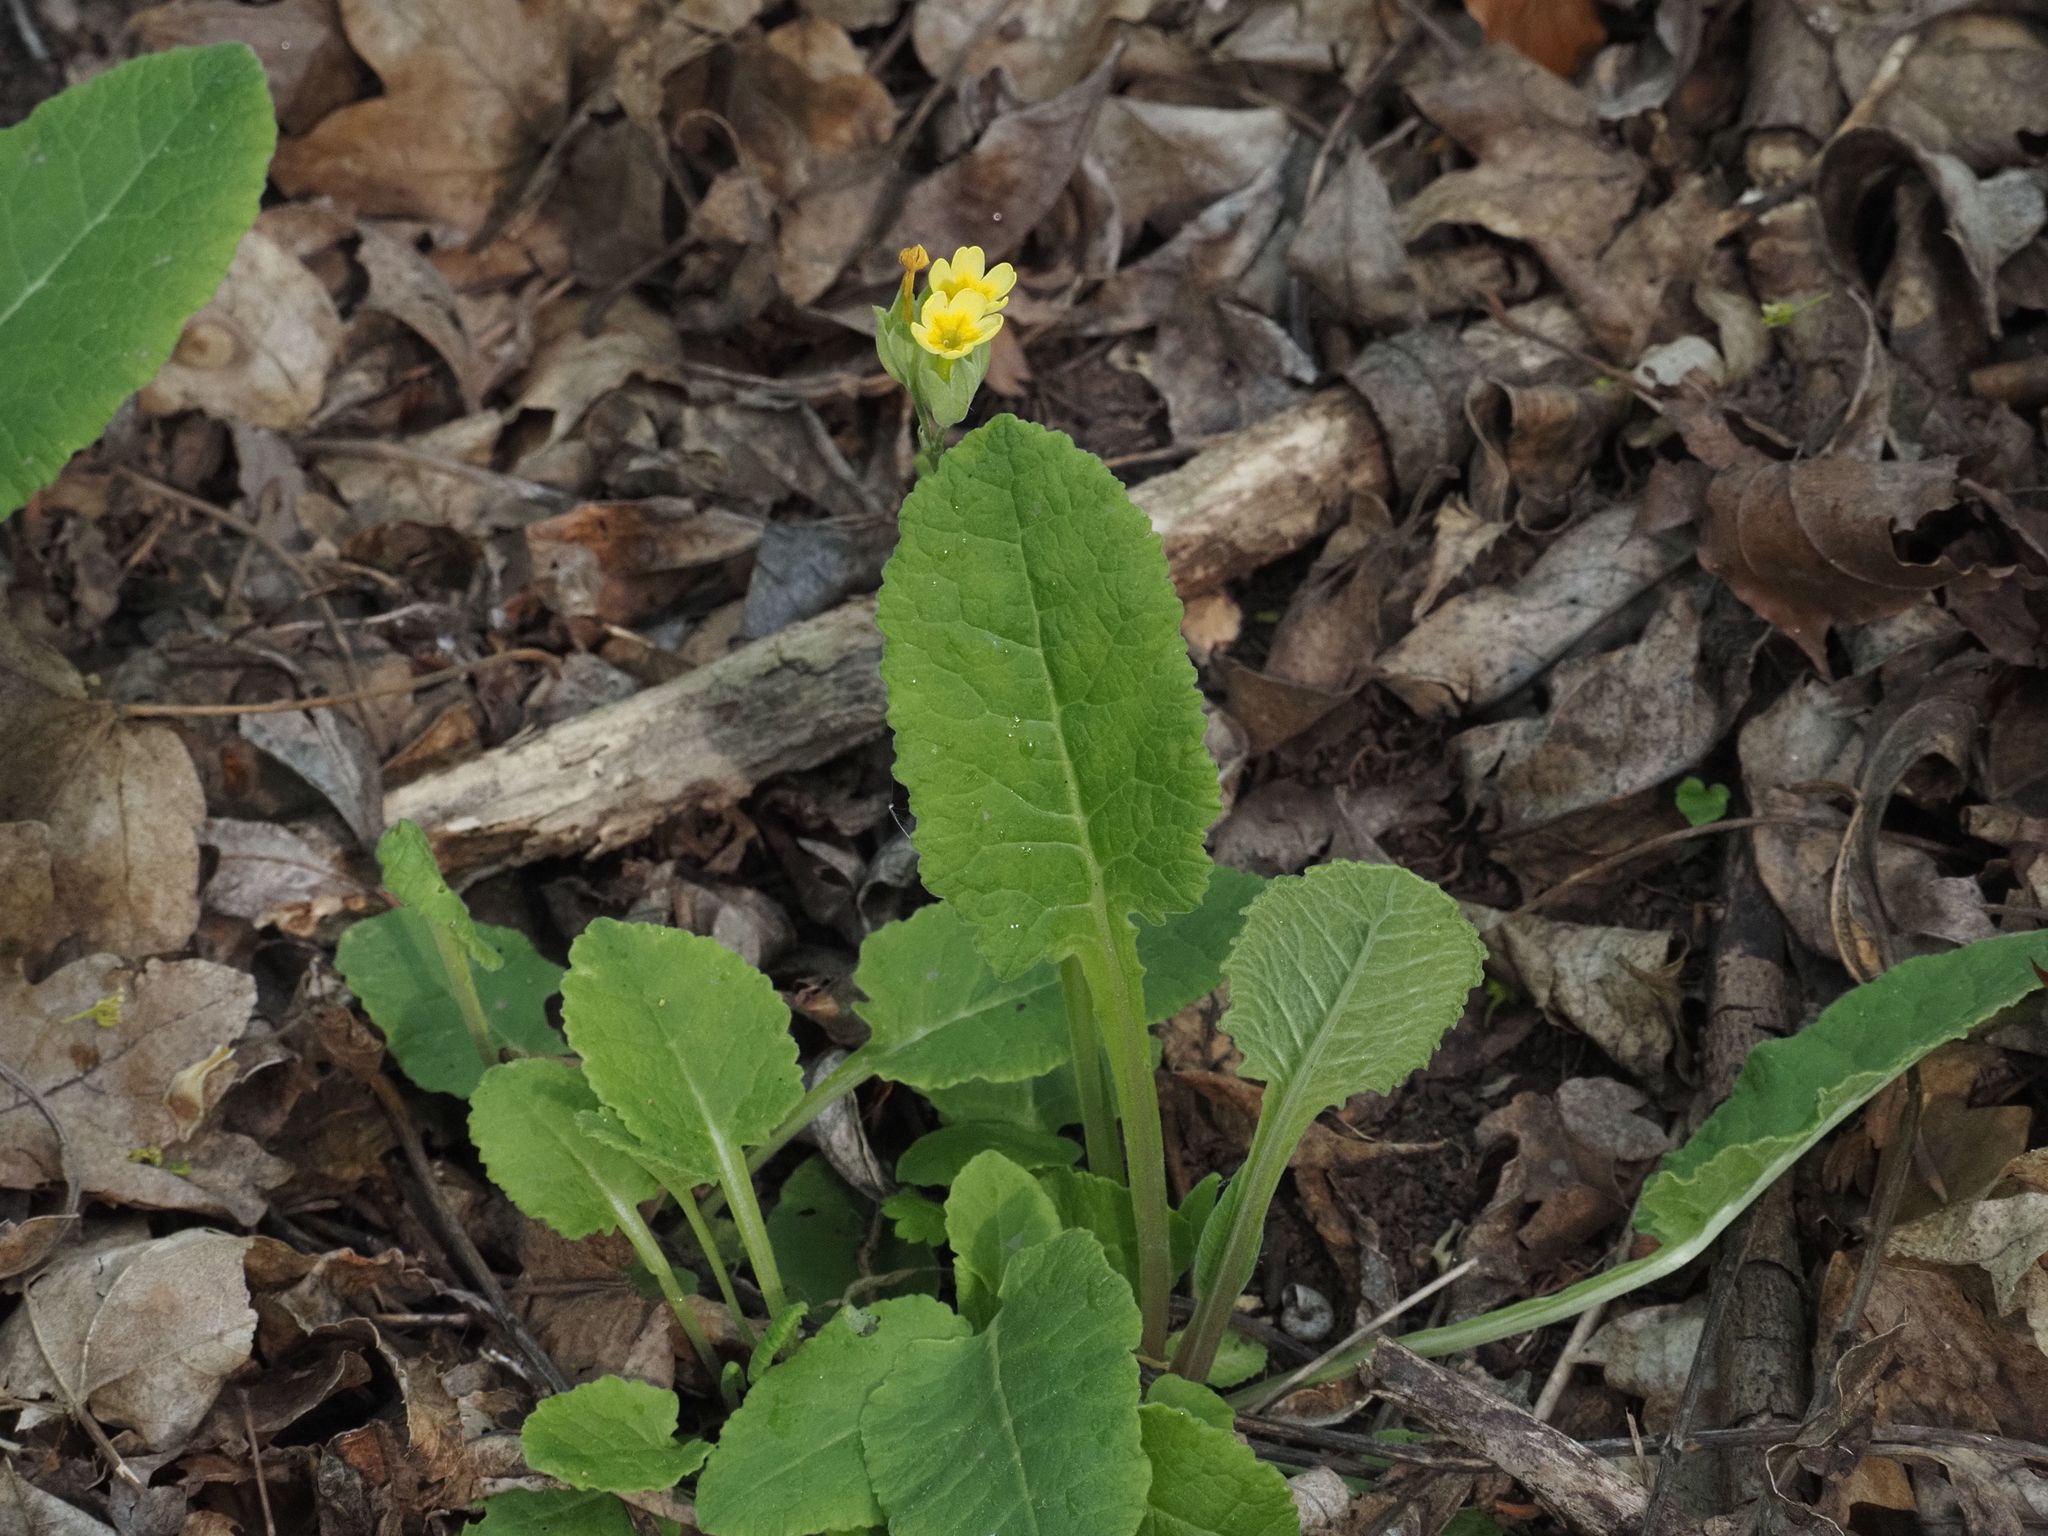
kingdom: Plantae
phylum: Tracheophyta
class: Magnoliopsida
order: Ericales
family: Primulaceae
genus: Primula
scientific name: Primula veris
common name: Cowslip
